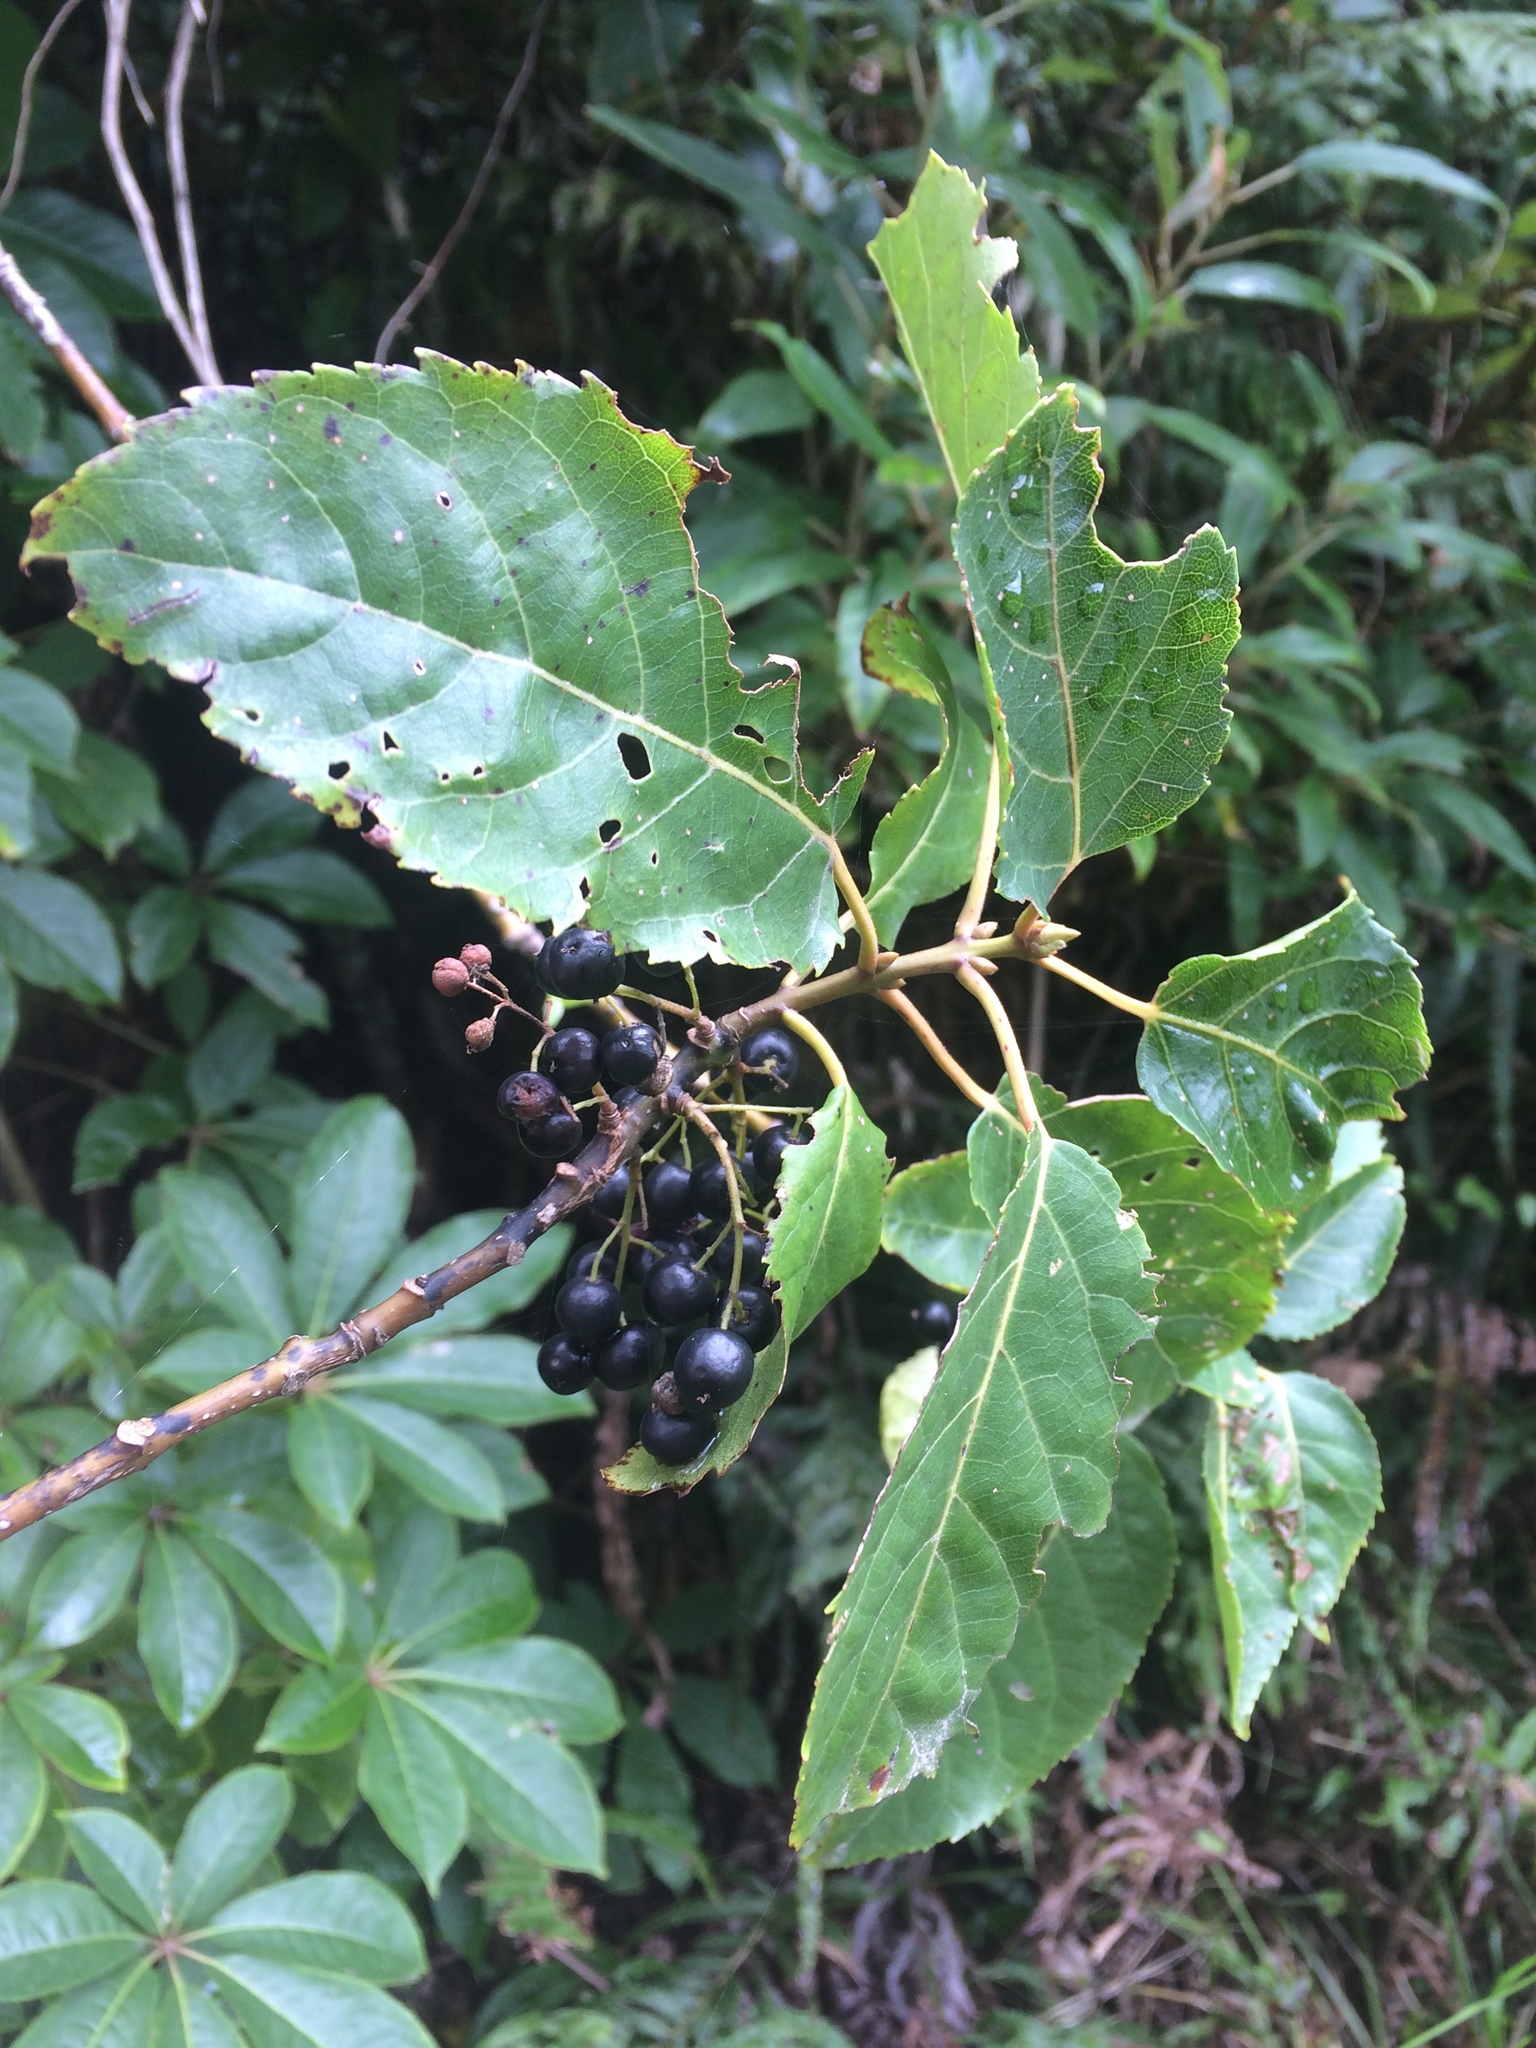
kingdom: Plantae
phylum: Tracheophyta
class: Magnoliopsida
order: Oxalidales
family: Elaeocarpaceae
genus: Aristotelia
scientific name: Aristotelia serrata
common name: New zealand wineberry
